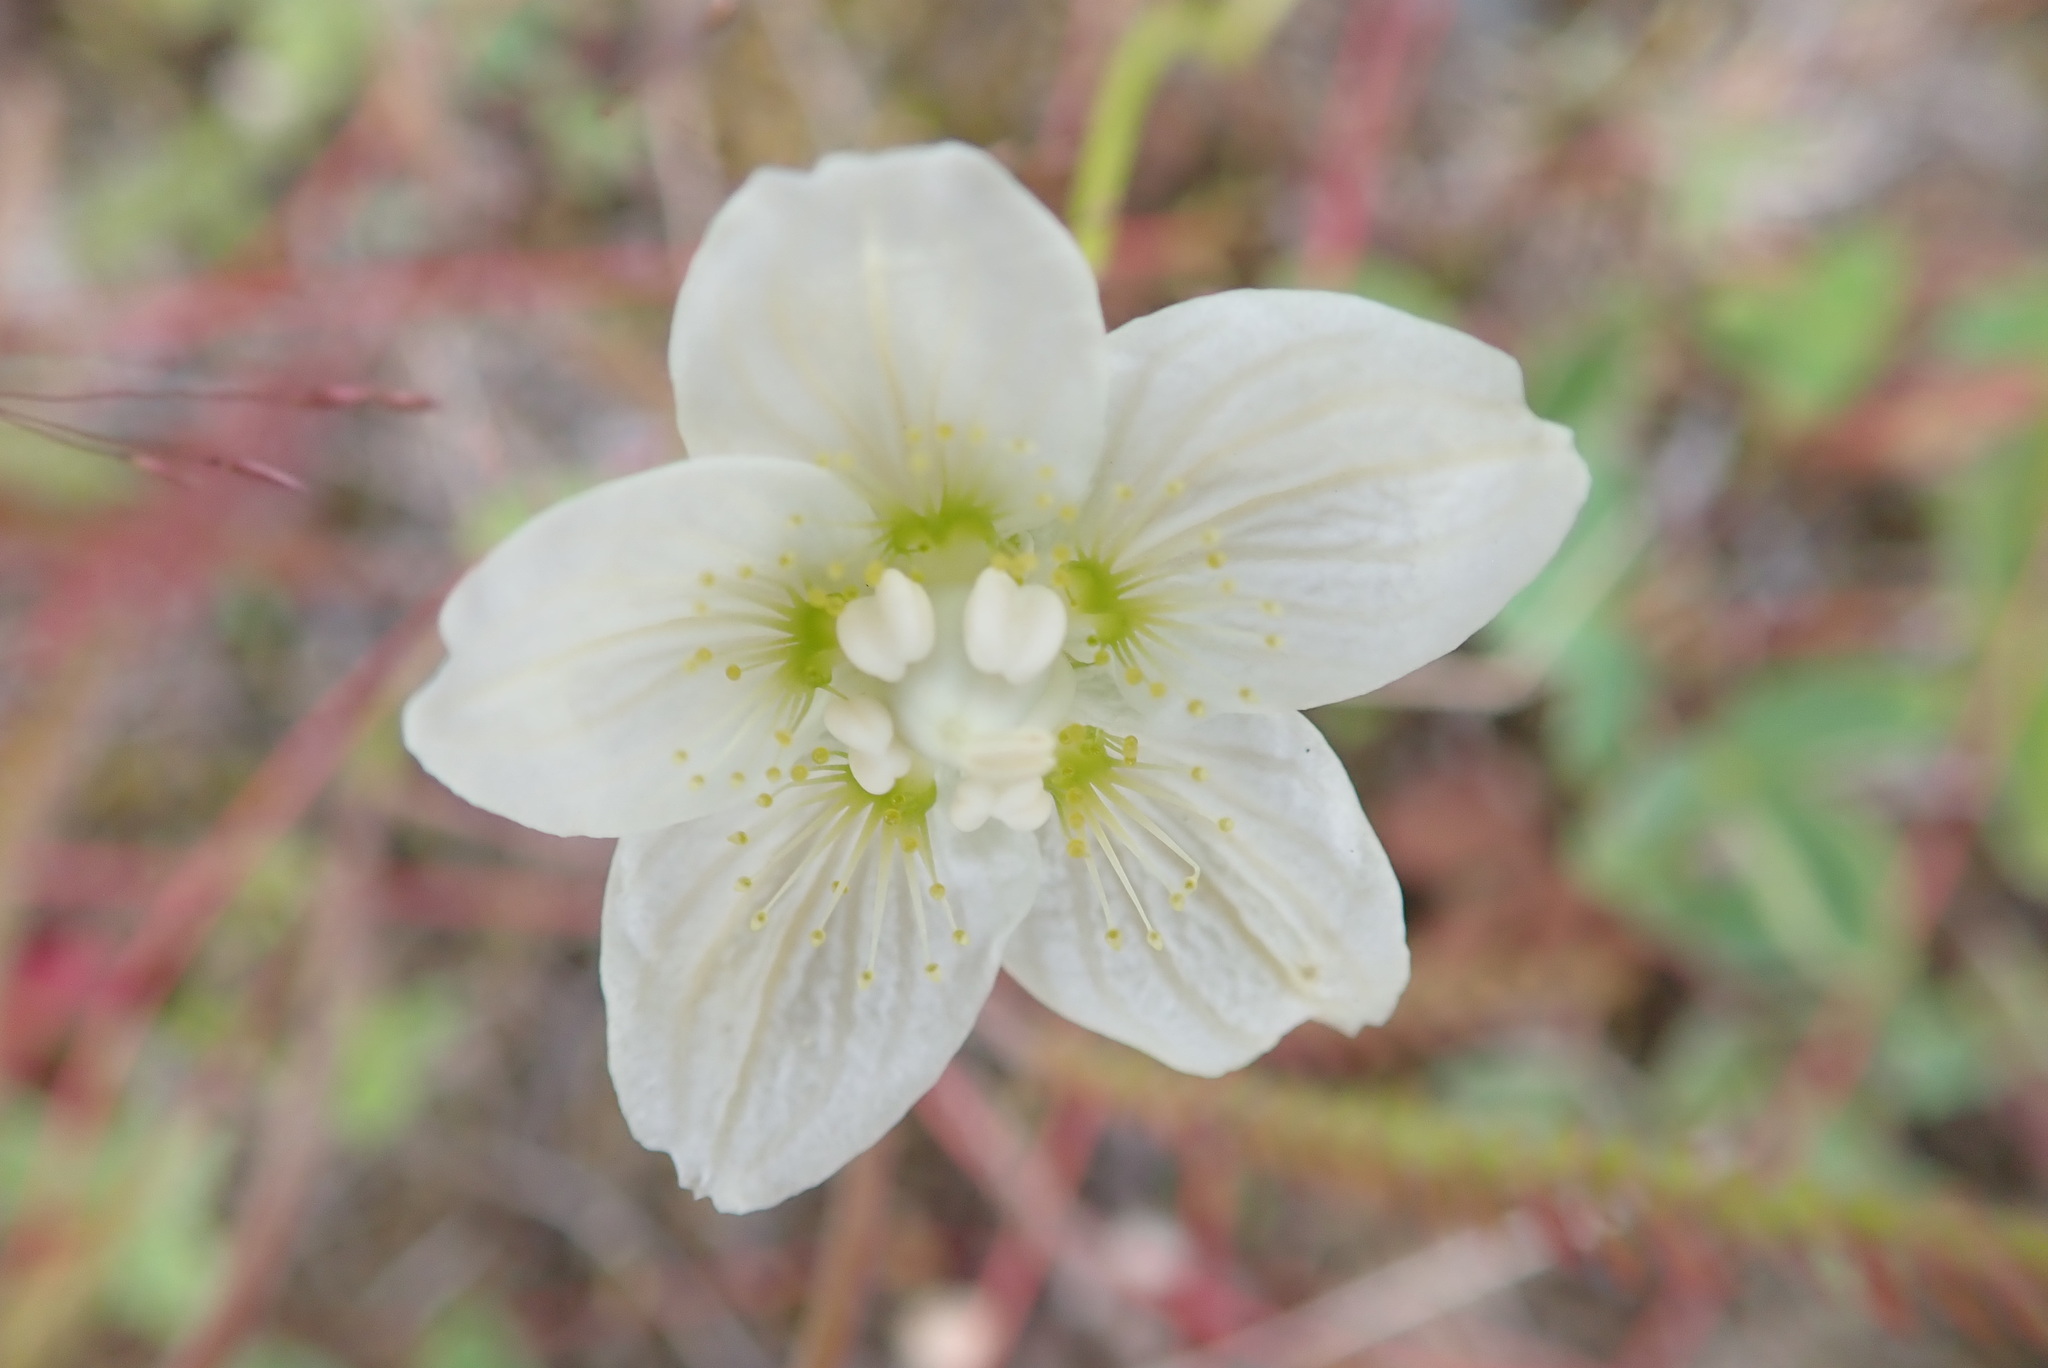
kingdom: Plantae
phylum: Tracheophyta
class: Magnoliopsida
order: Celastrales
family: Parnassiaceae
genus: Parnassia
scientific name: Parnassia palustris
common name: Grass-of-parnassus
